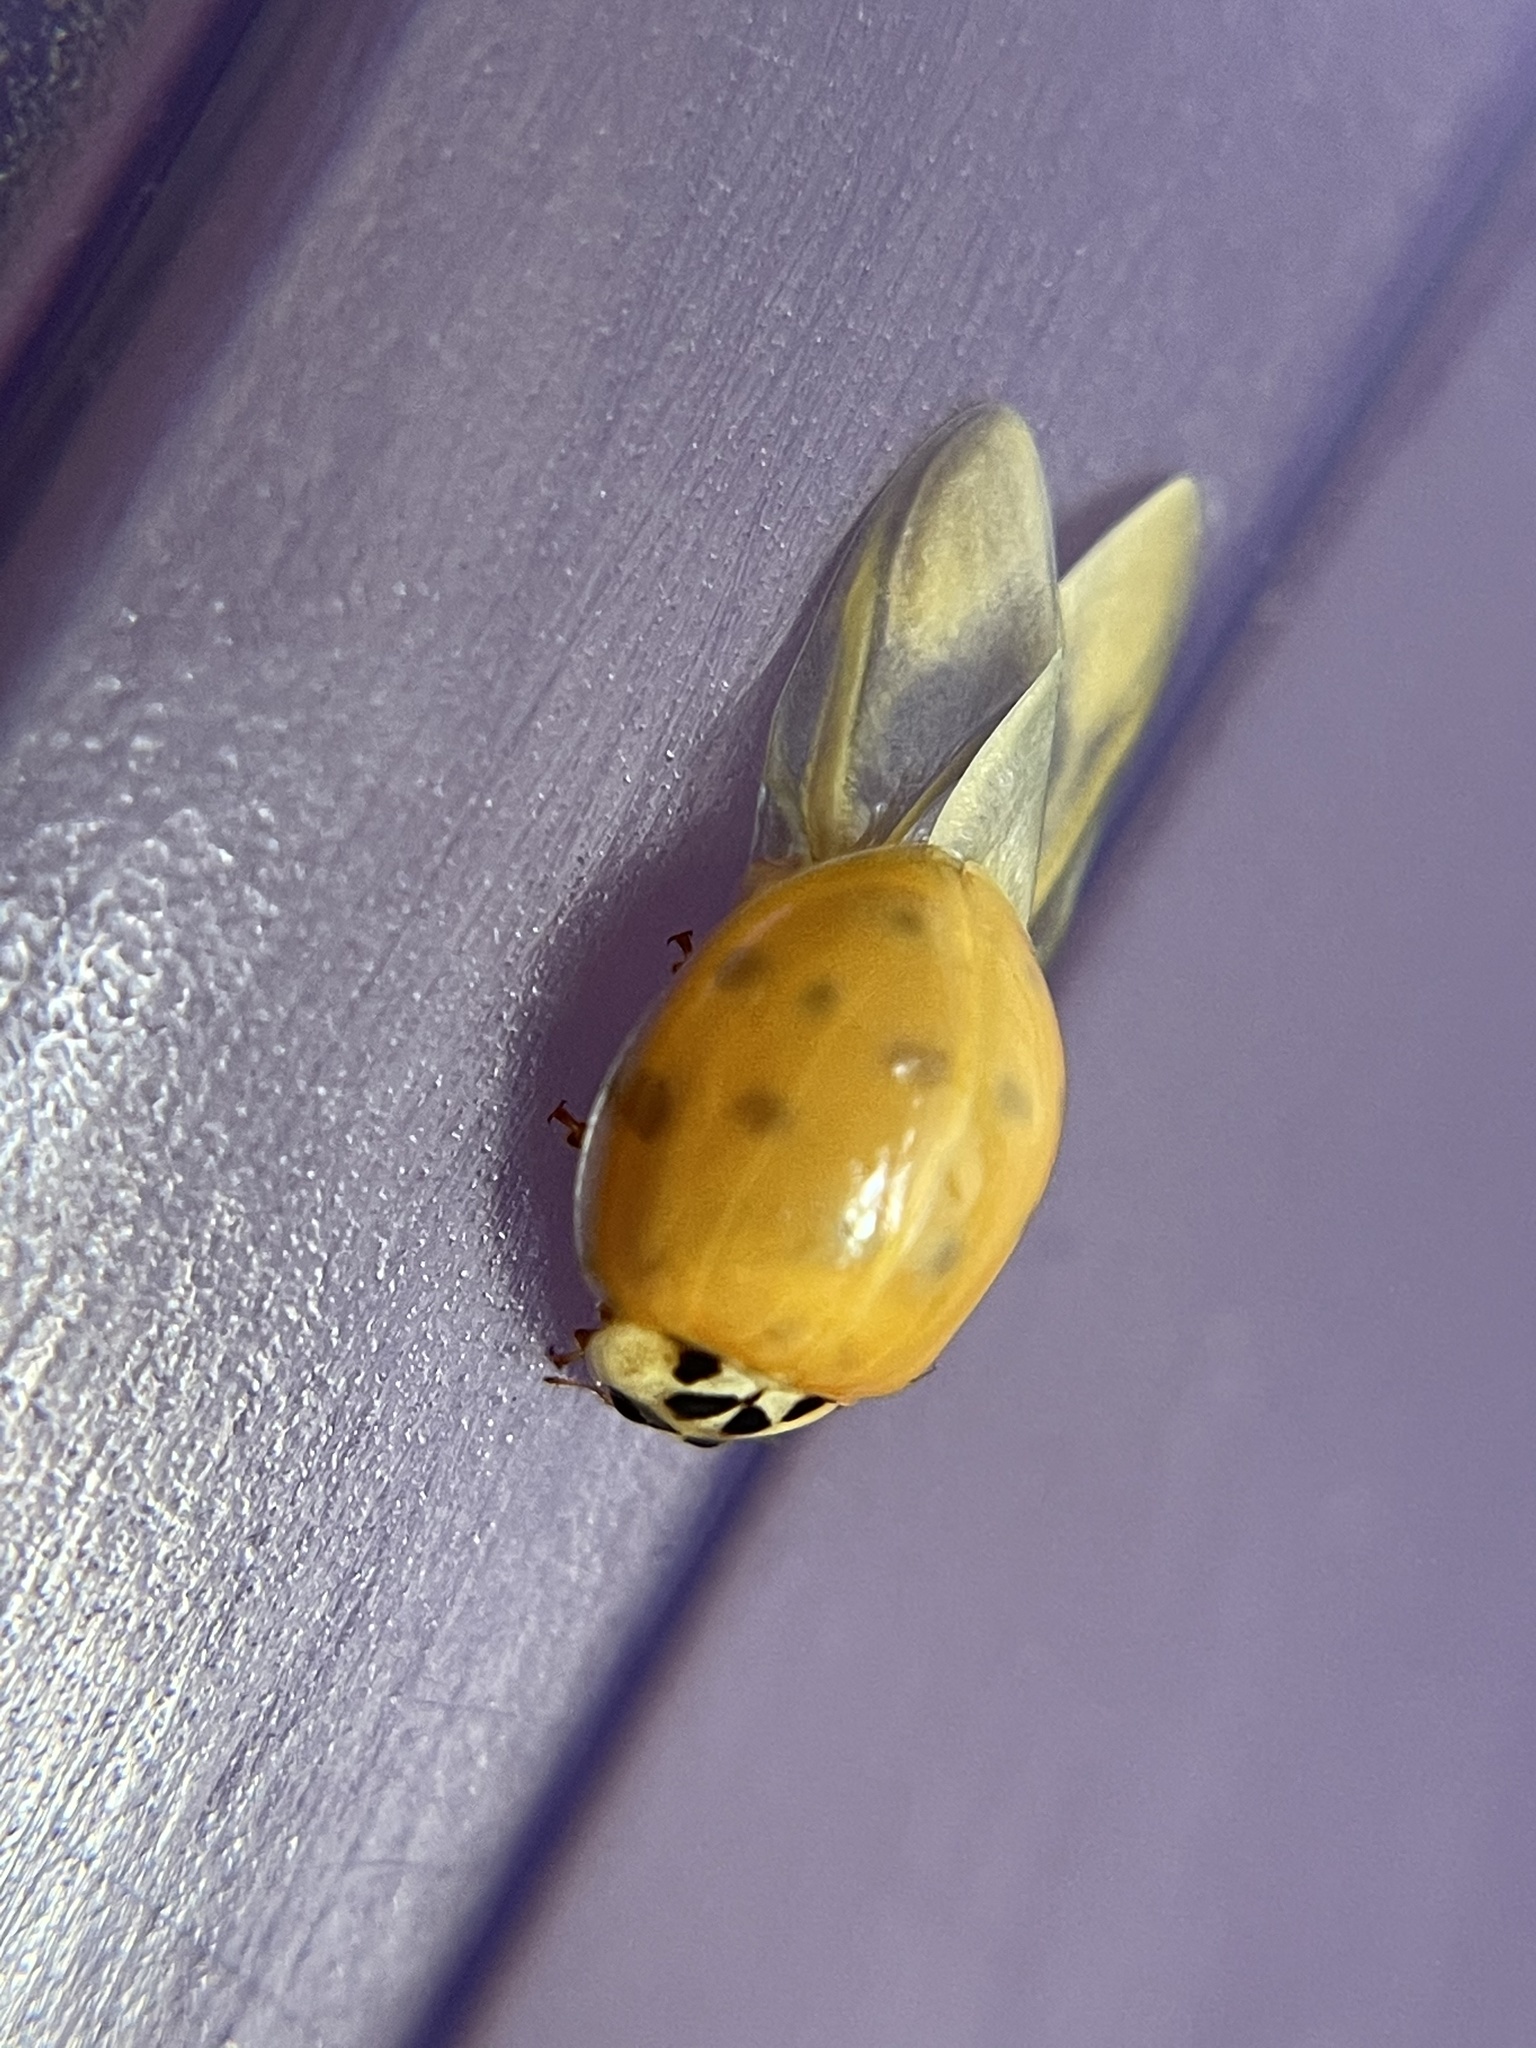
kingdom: Animalia
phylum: Arthropoda
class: Insecta
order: Coleoptera
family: Coccinellidae
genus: Harmonia
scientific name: Harmonia axyridis
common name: Harlequin ladybird
